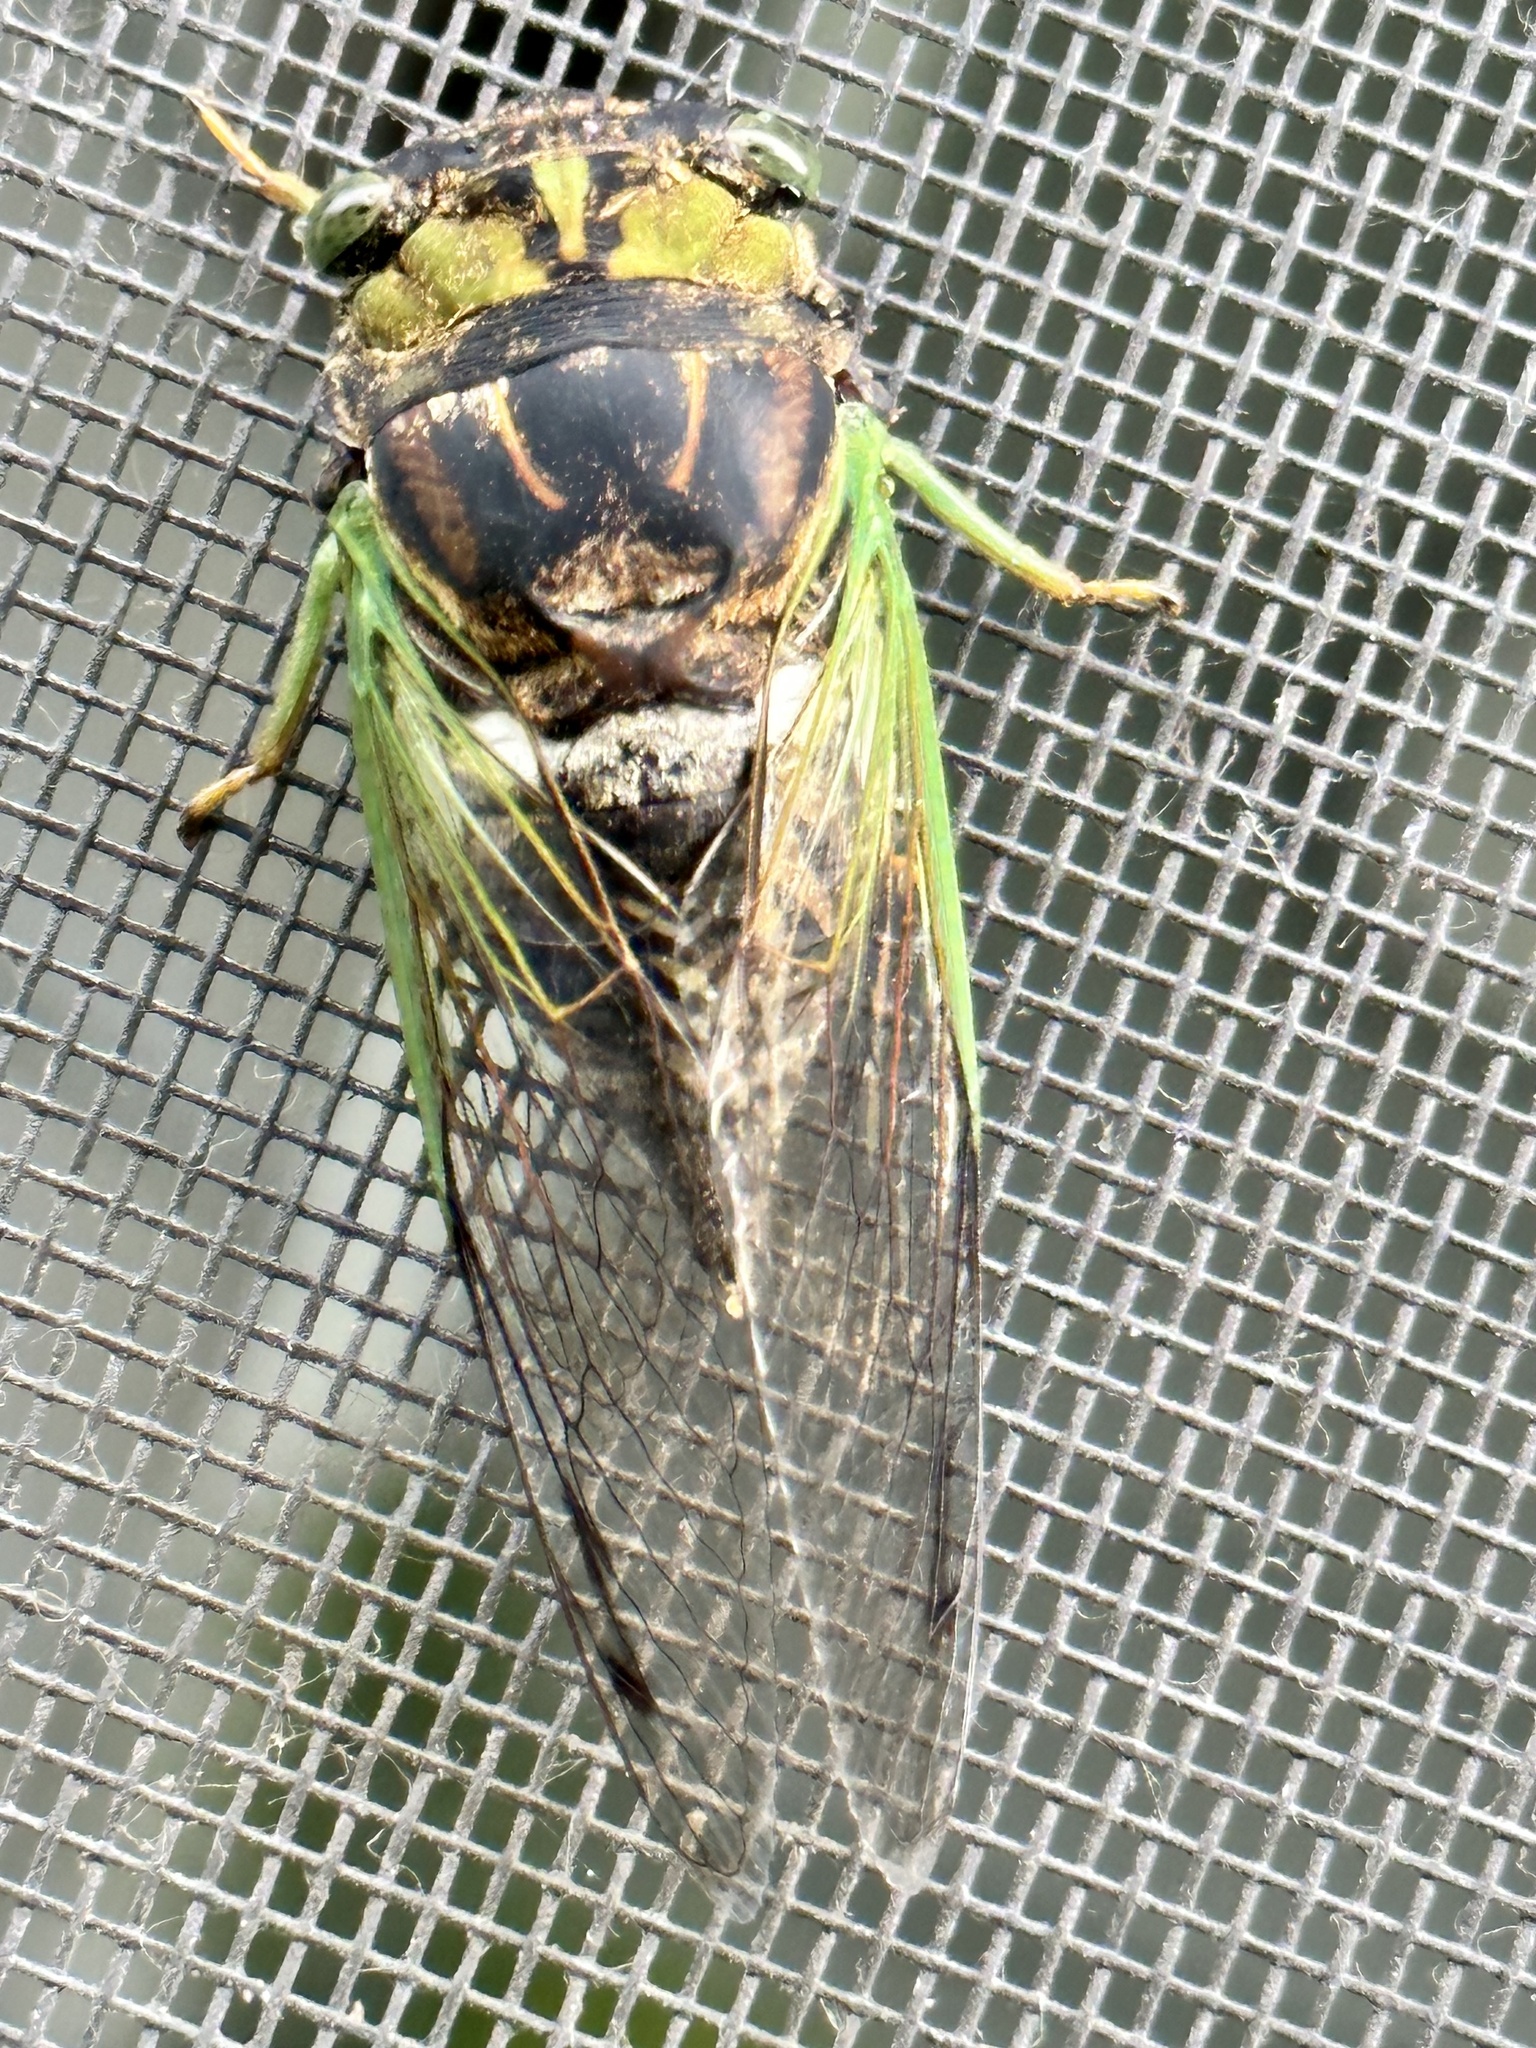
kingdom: Animalia
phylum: Arthropoda
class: Insecta
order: Hemiptera
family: Cicadidae
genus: Neotibicen
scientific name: Neotibicen tibicen
